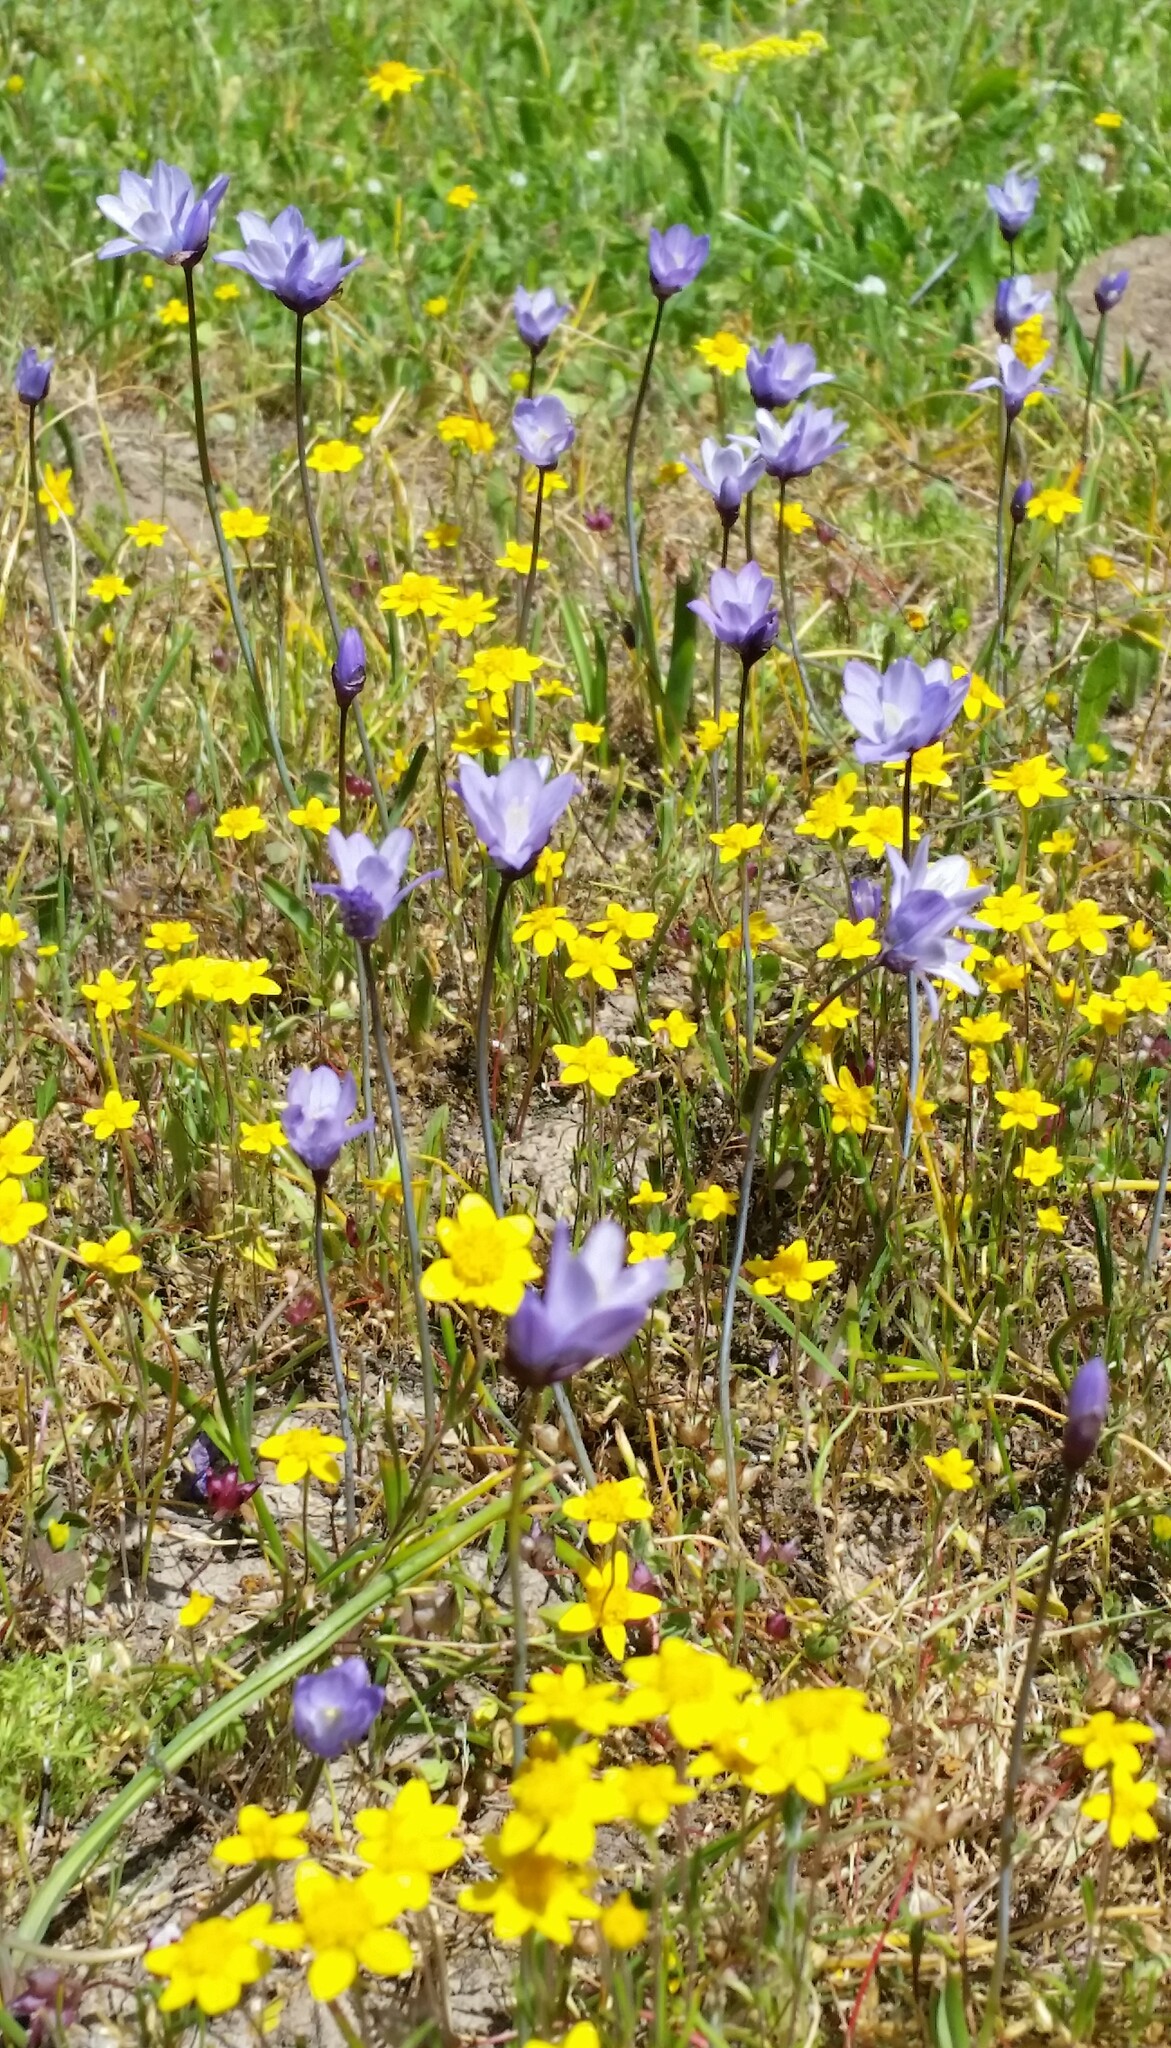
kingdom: Plantae
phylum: Tracheophyta
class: Liliopsida
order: Asparagales
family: Asparagaceae
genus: Dipterostemon
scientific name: Dipterostemon capitatus
